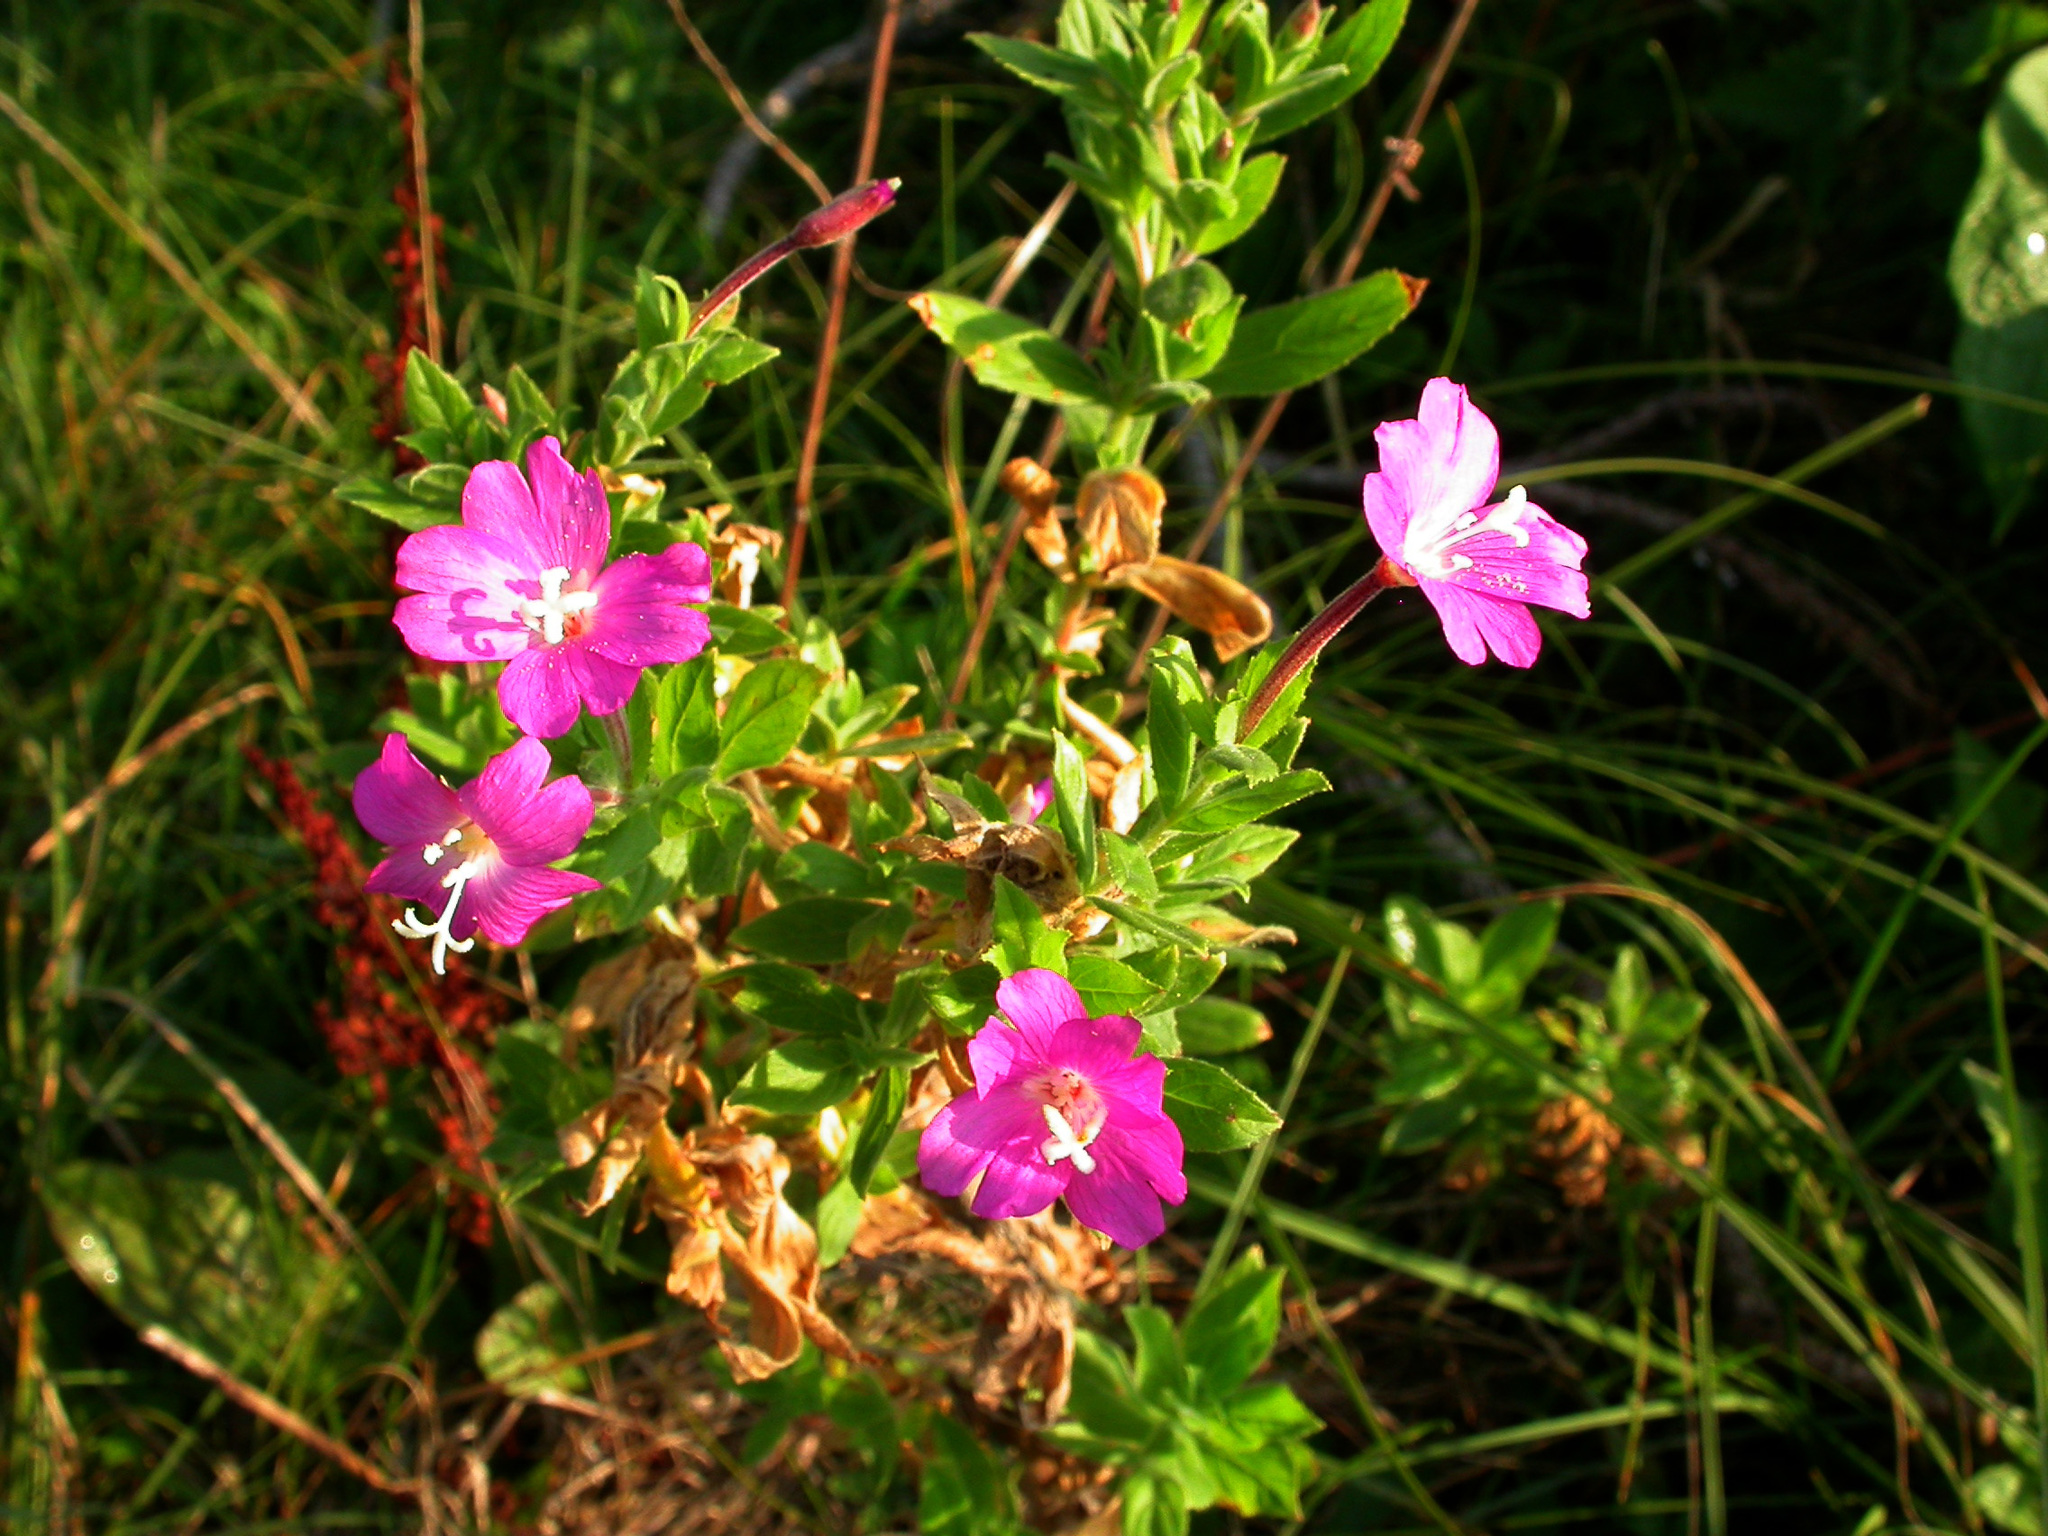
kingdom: Plantae
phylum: Tracheophyta
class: Magnoliopsida
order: Myrtales
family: Onagraceae
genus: Epilobium
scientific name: Epilobium hirsutum
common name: Great willowherb
